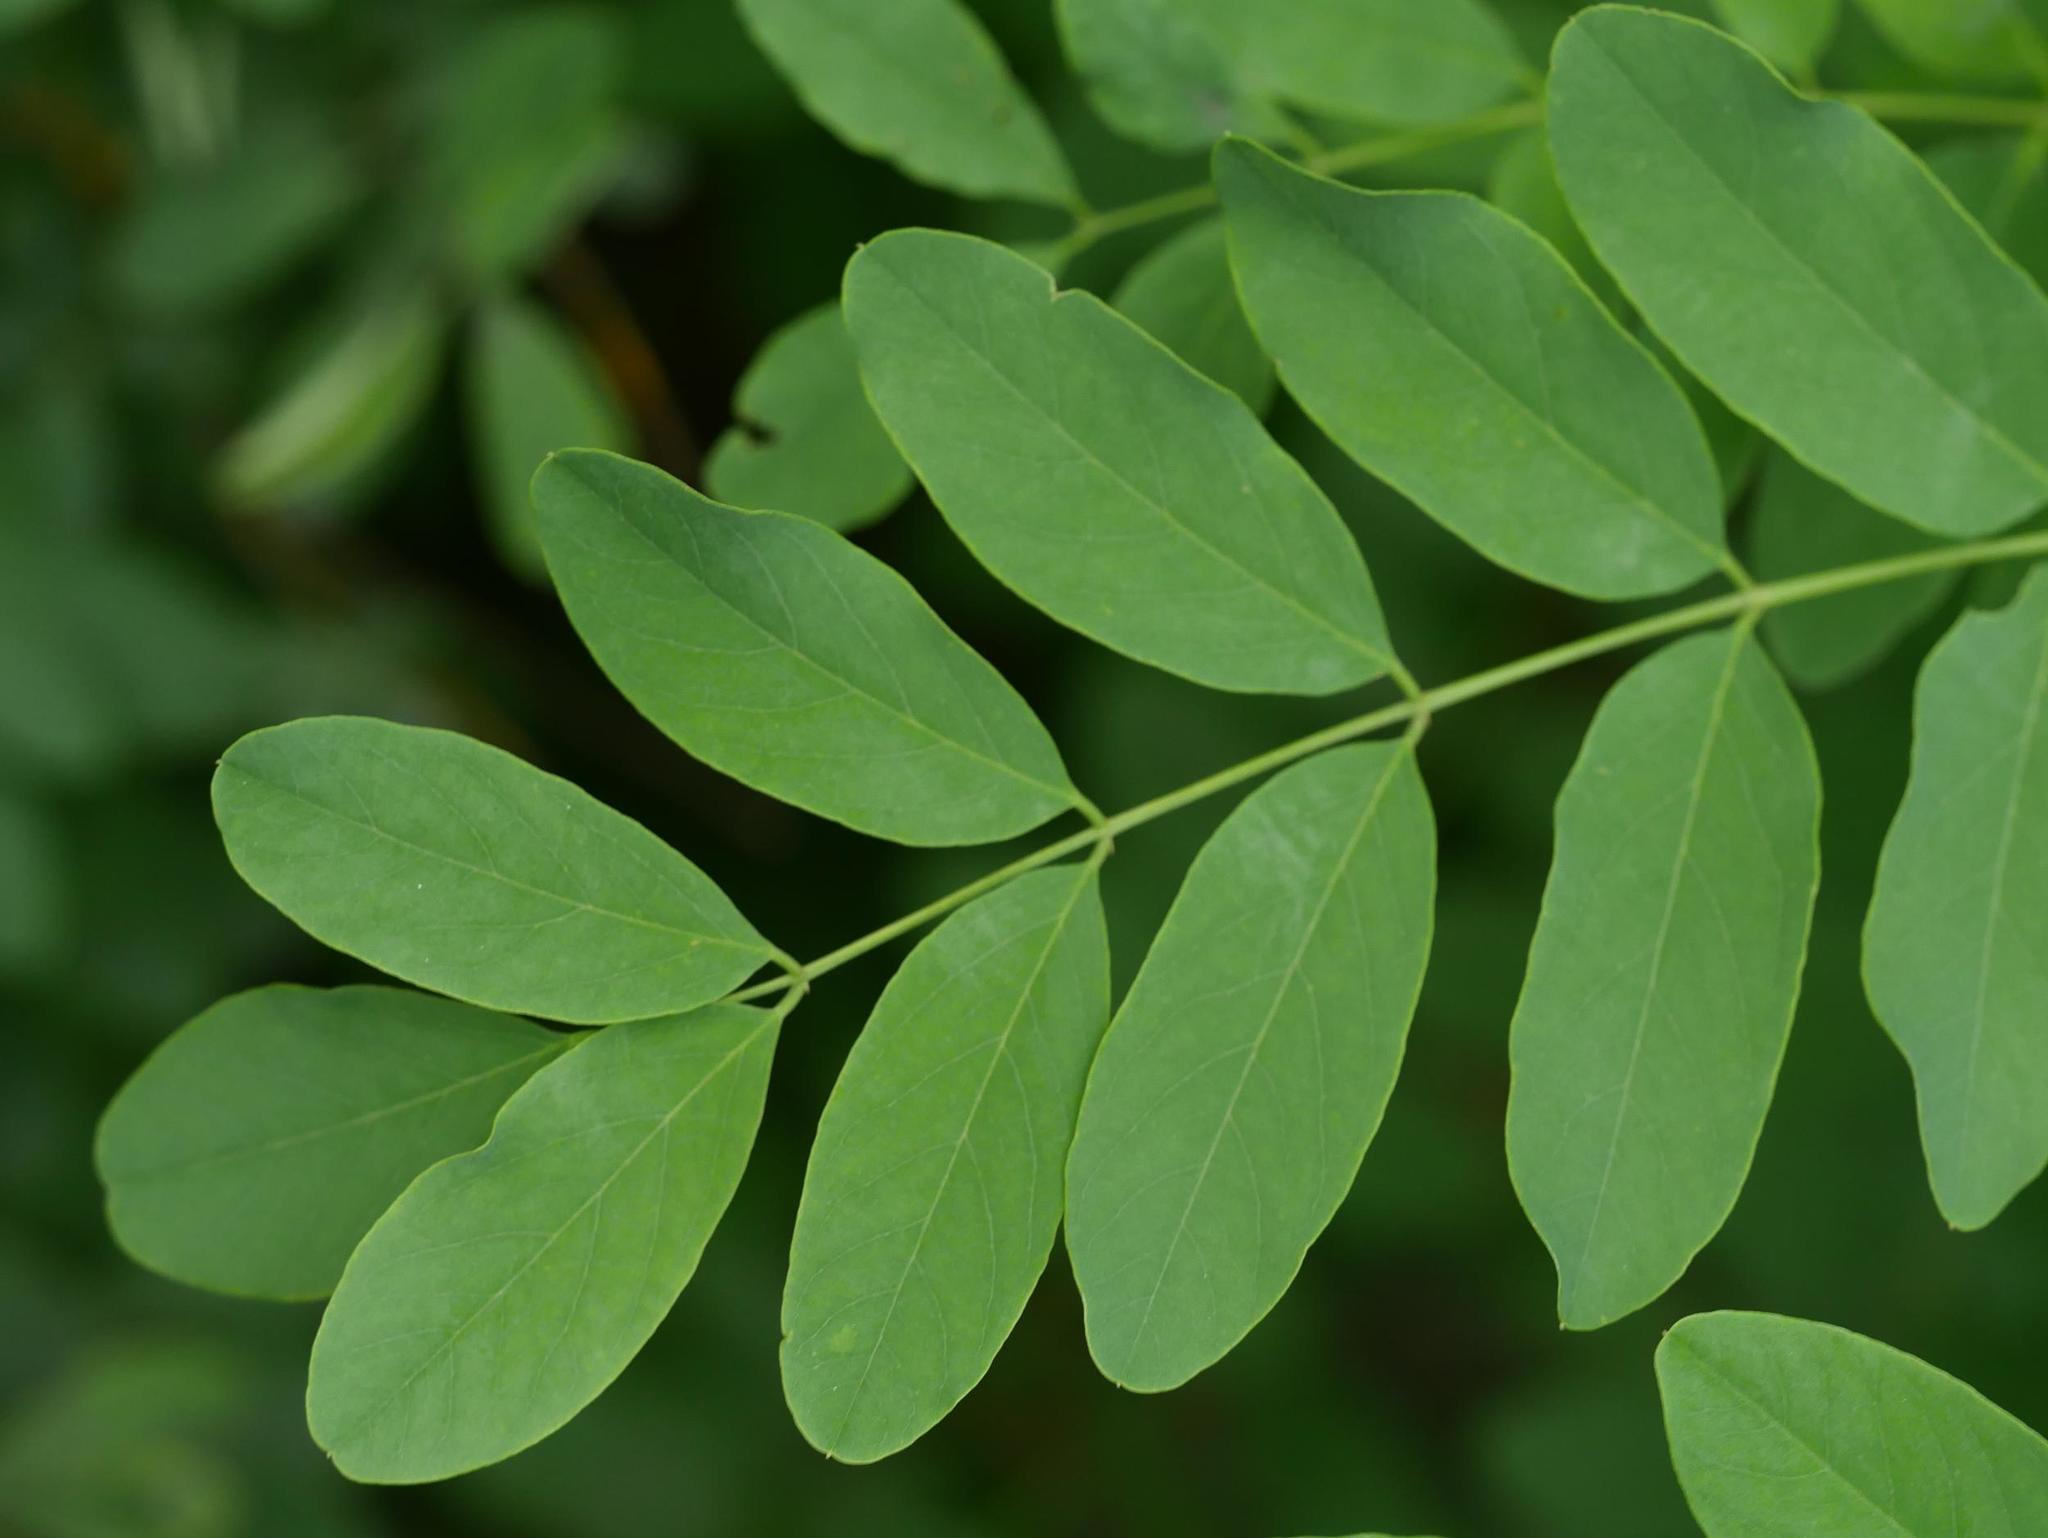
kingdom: Plantae
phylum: Tracheophyta
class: Magnoliopsida
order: Fabales
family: Fabaceae
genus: Robinia
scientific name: Robinia pseudoacacia
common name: Black locust
